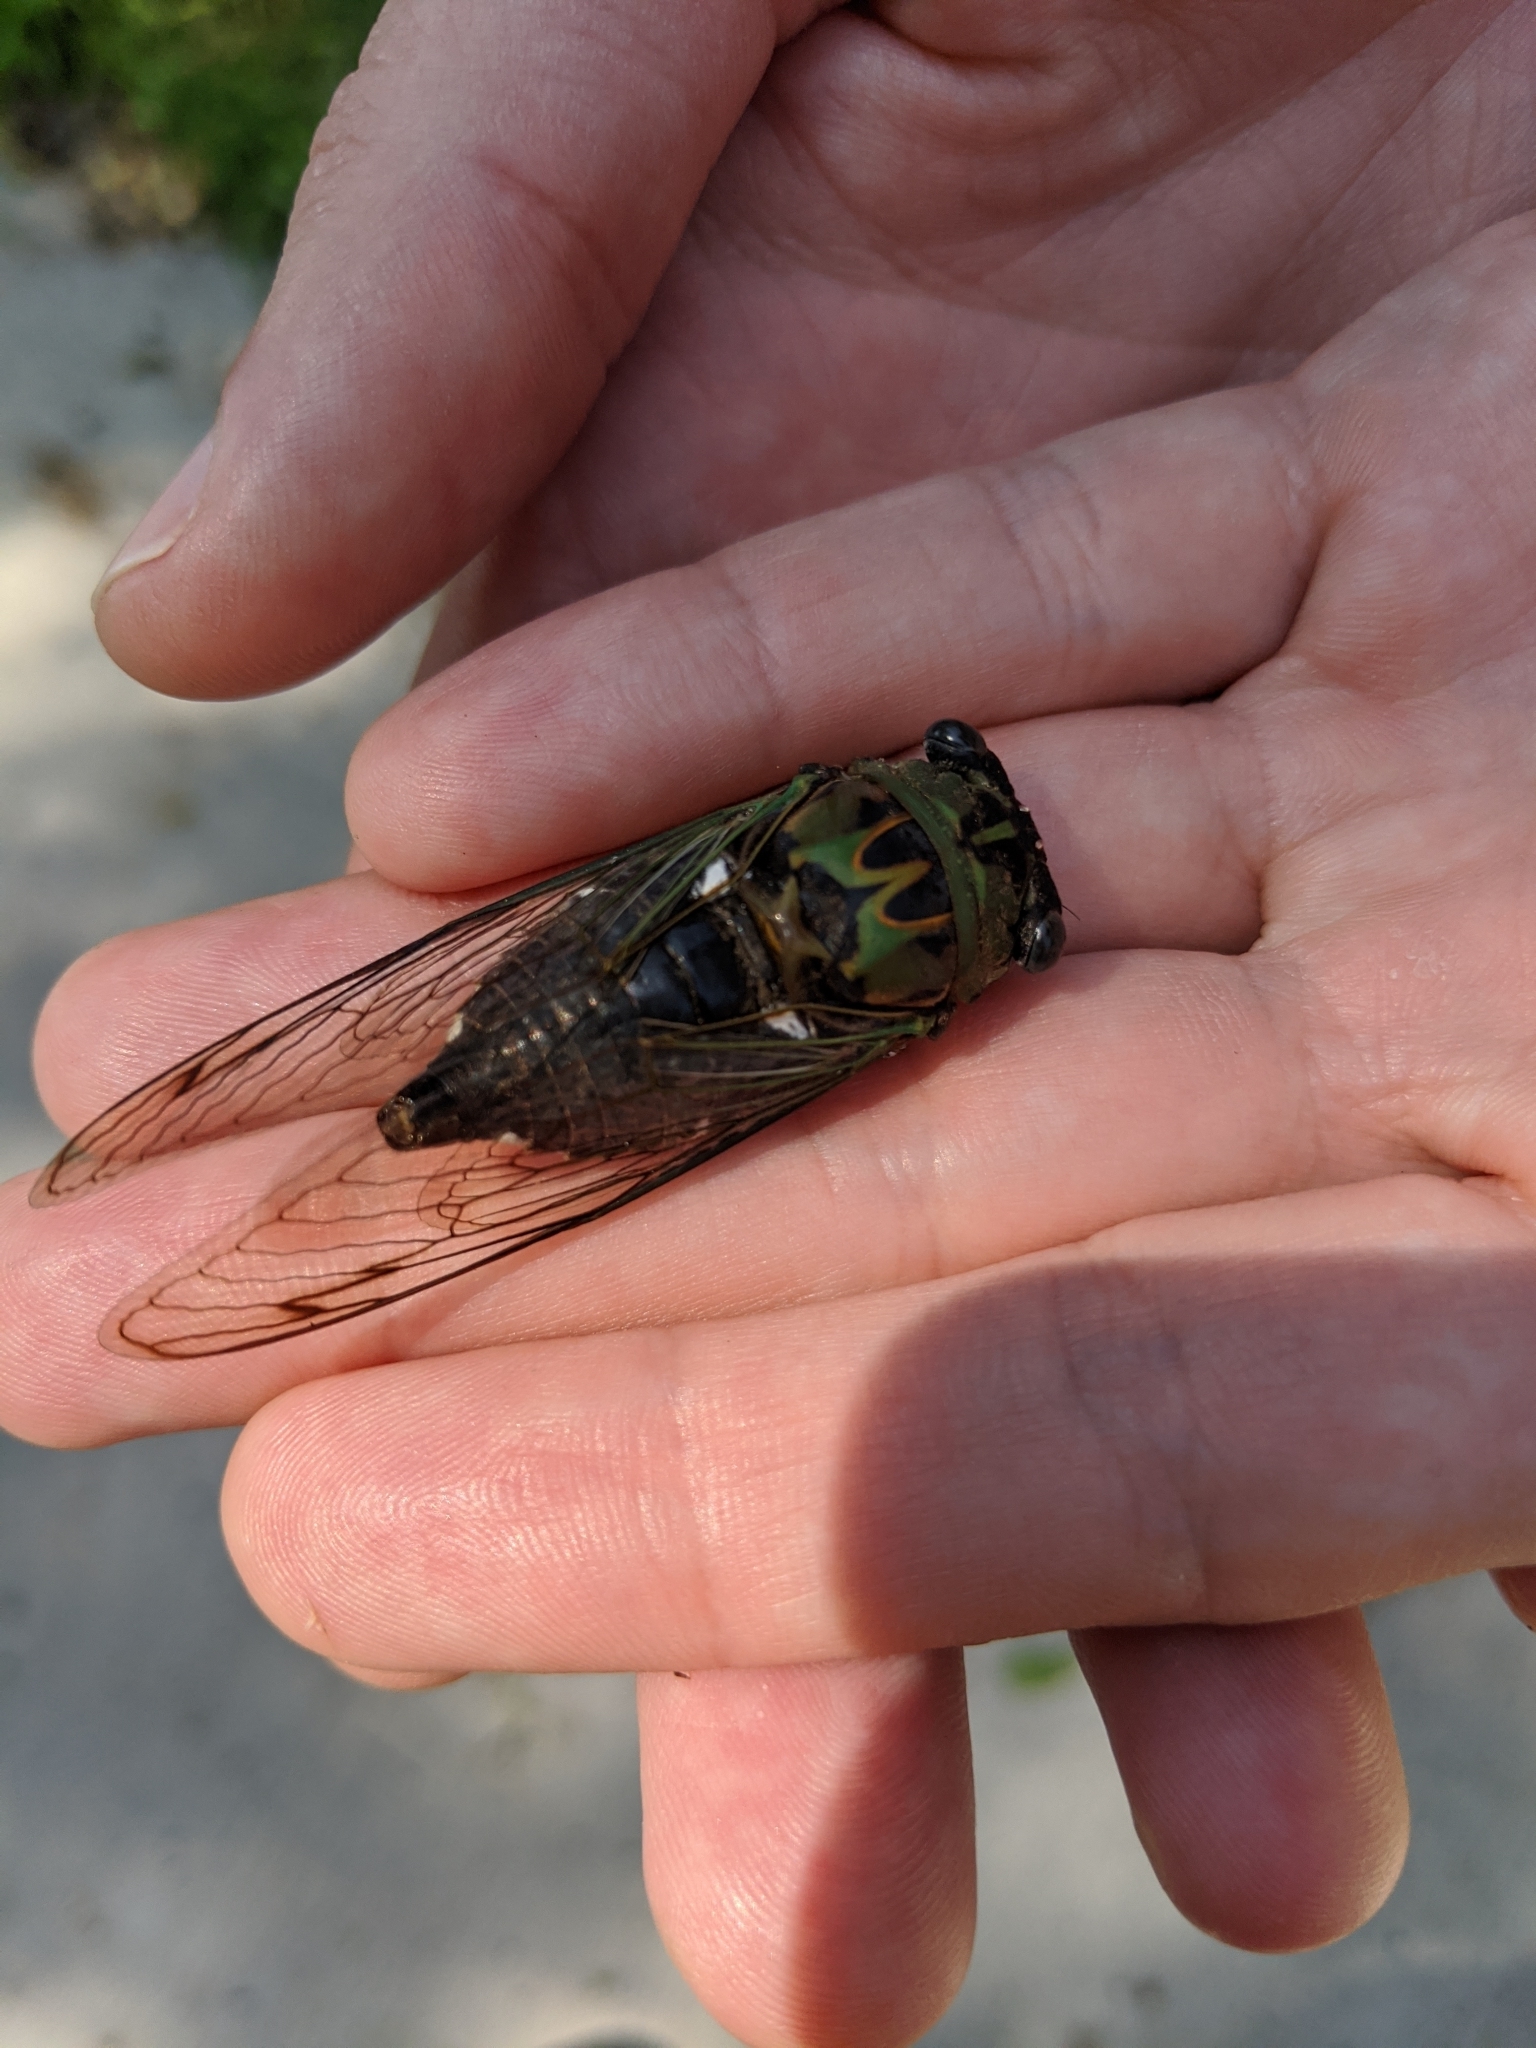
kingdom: Animalia
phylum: Arthropoda
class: Insecta
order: Hemiptera
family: Cicadidae
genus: Neotibicen
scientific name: Neotibicen pruinosus
